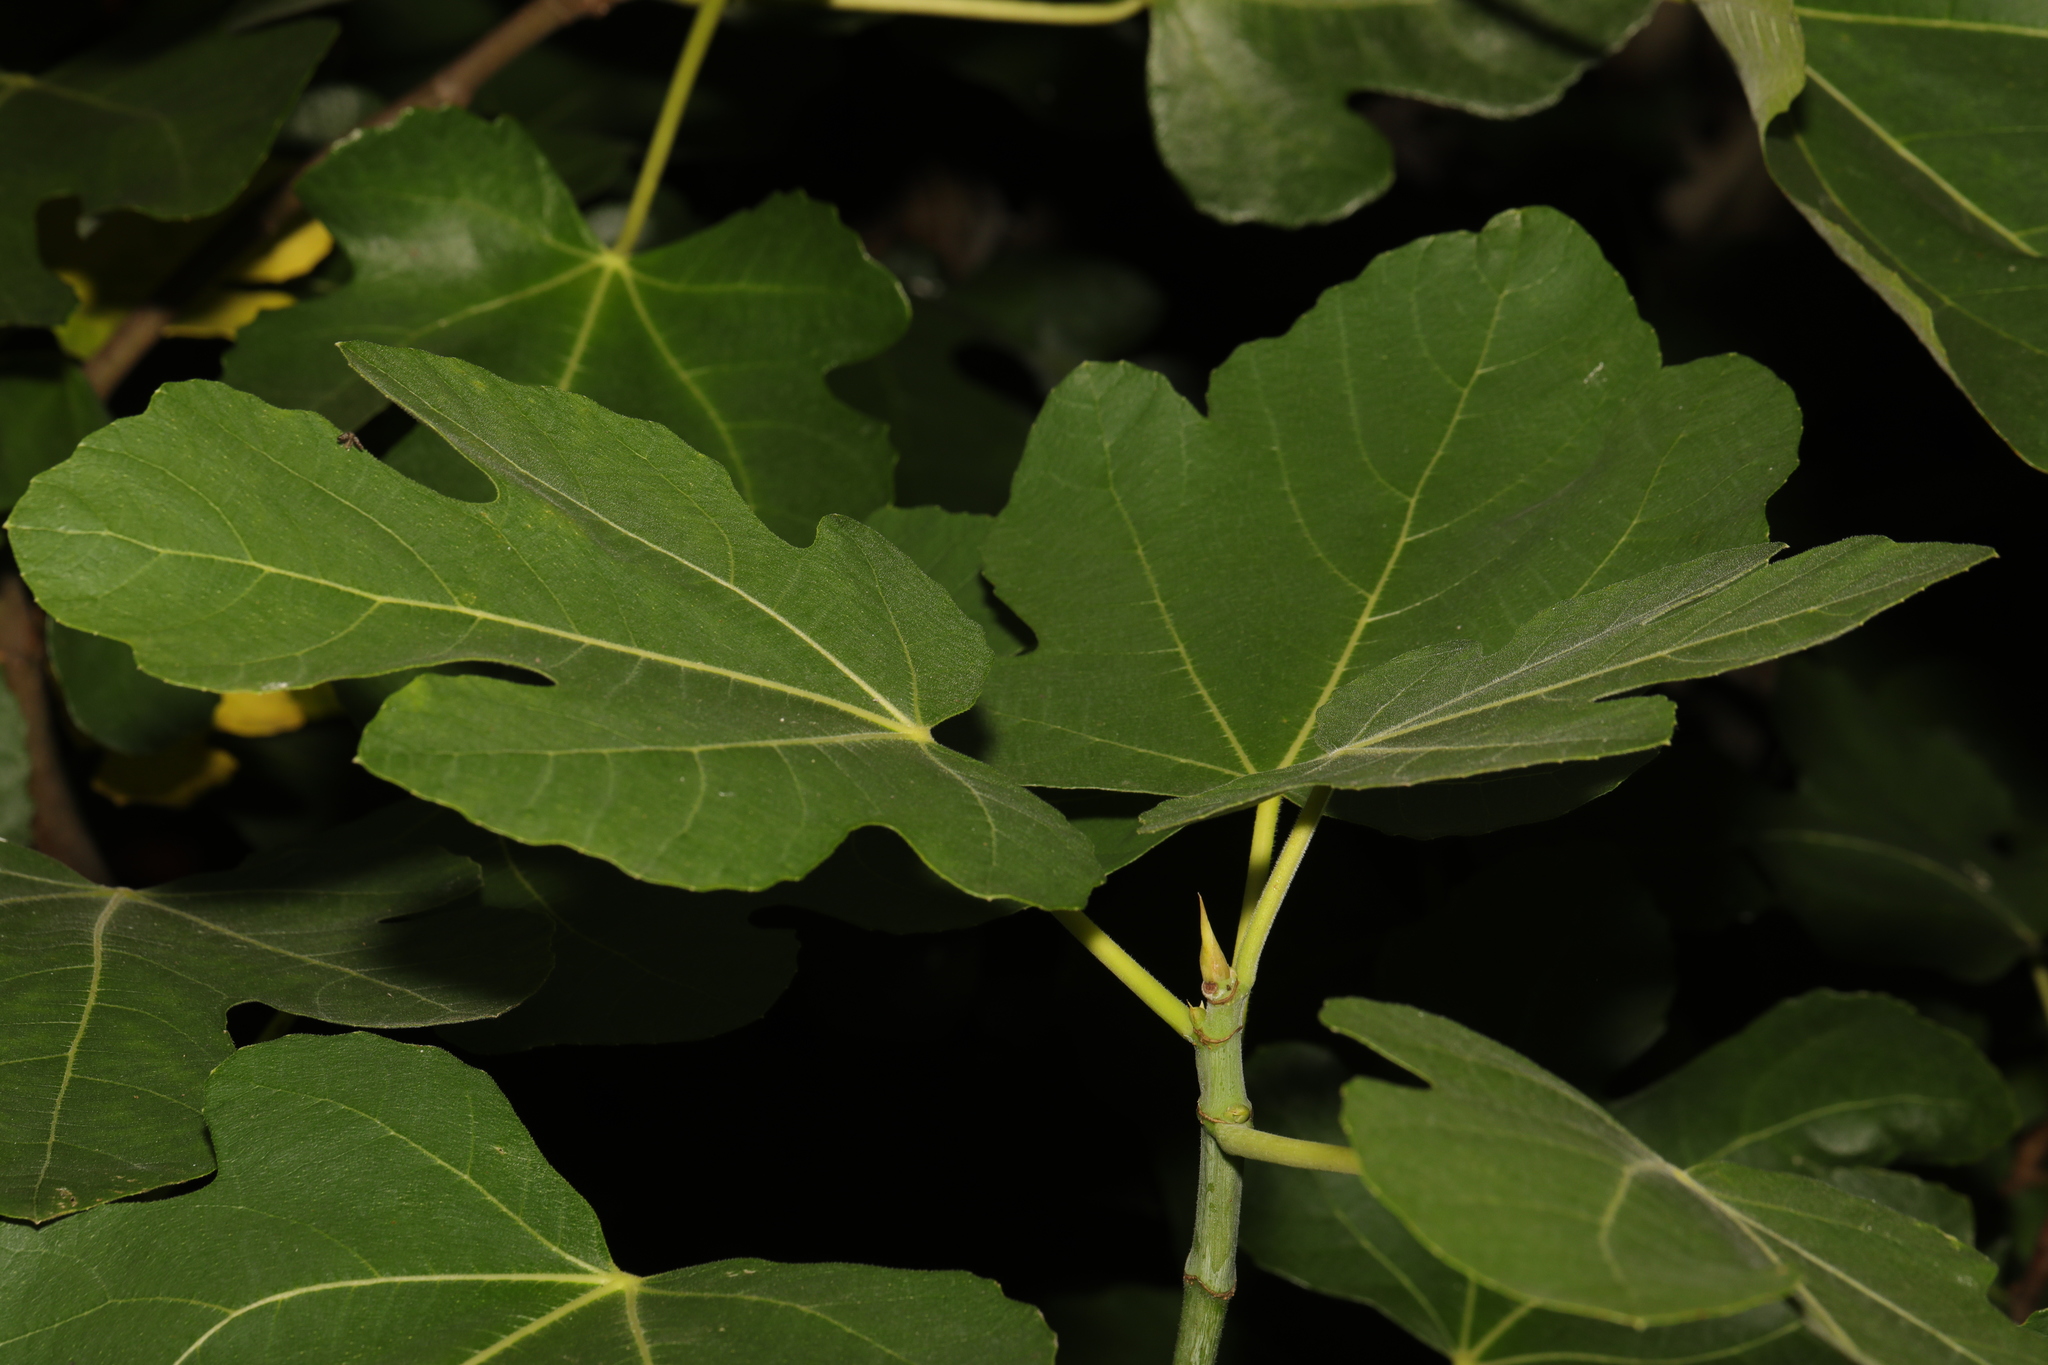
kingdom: Plantae
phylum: Tracheophyta
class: Magnoliopsida
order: Rosales
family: Moraceae
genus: Ficus
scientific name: Ficus carica
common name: Fig
